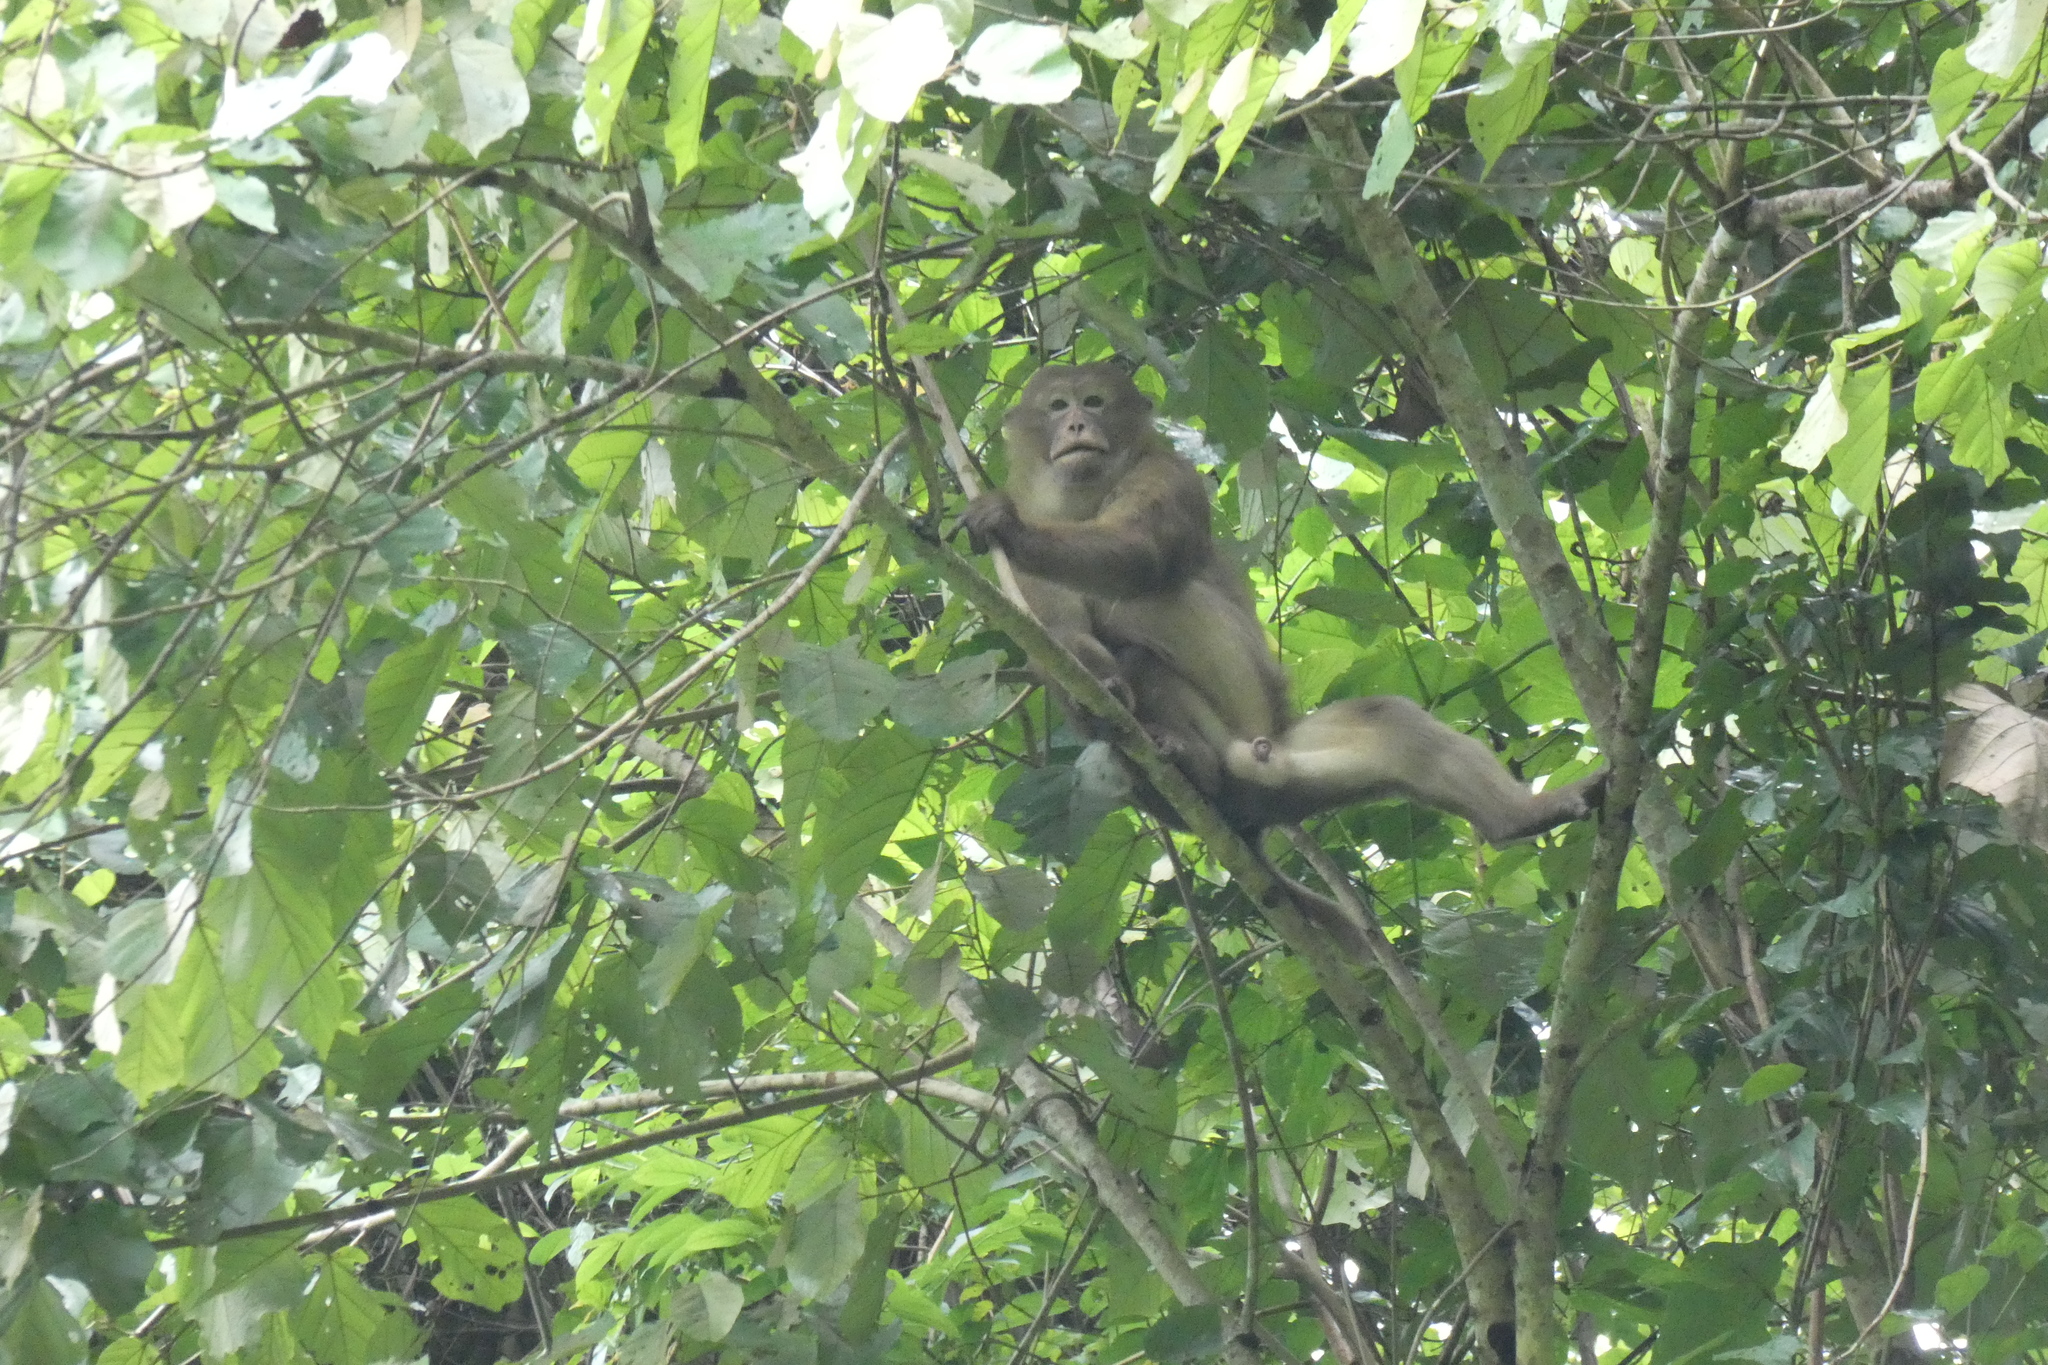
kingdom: Animalia
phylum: Chordata
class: Mammalia
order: Primates
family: Cercopithecidae
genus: Macaca
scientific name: Macaca assamensis
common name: Assam macaque
